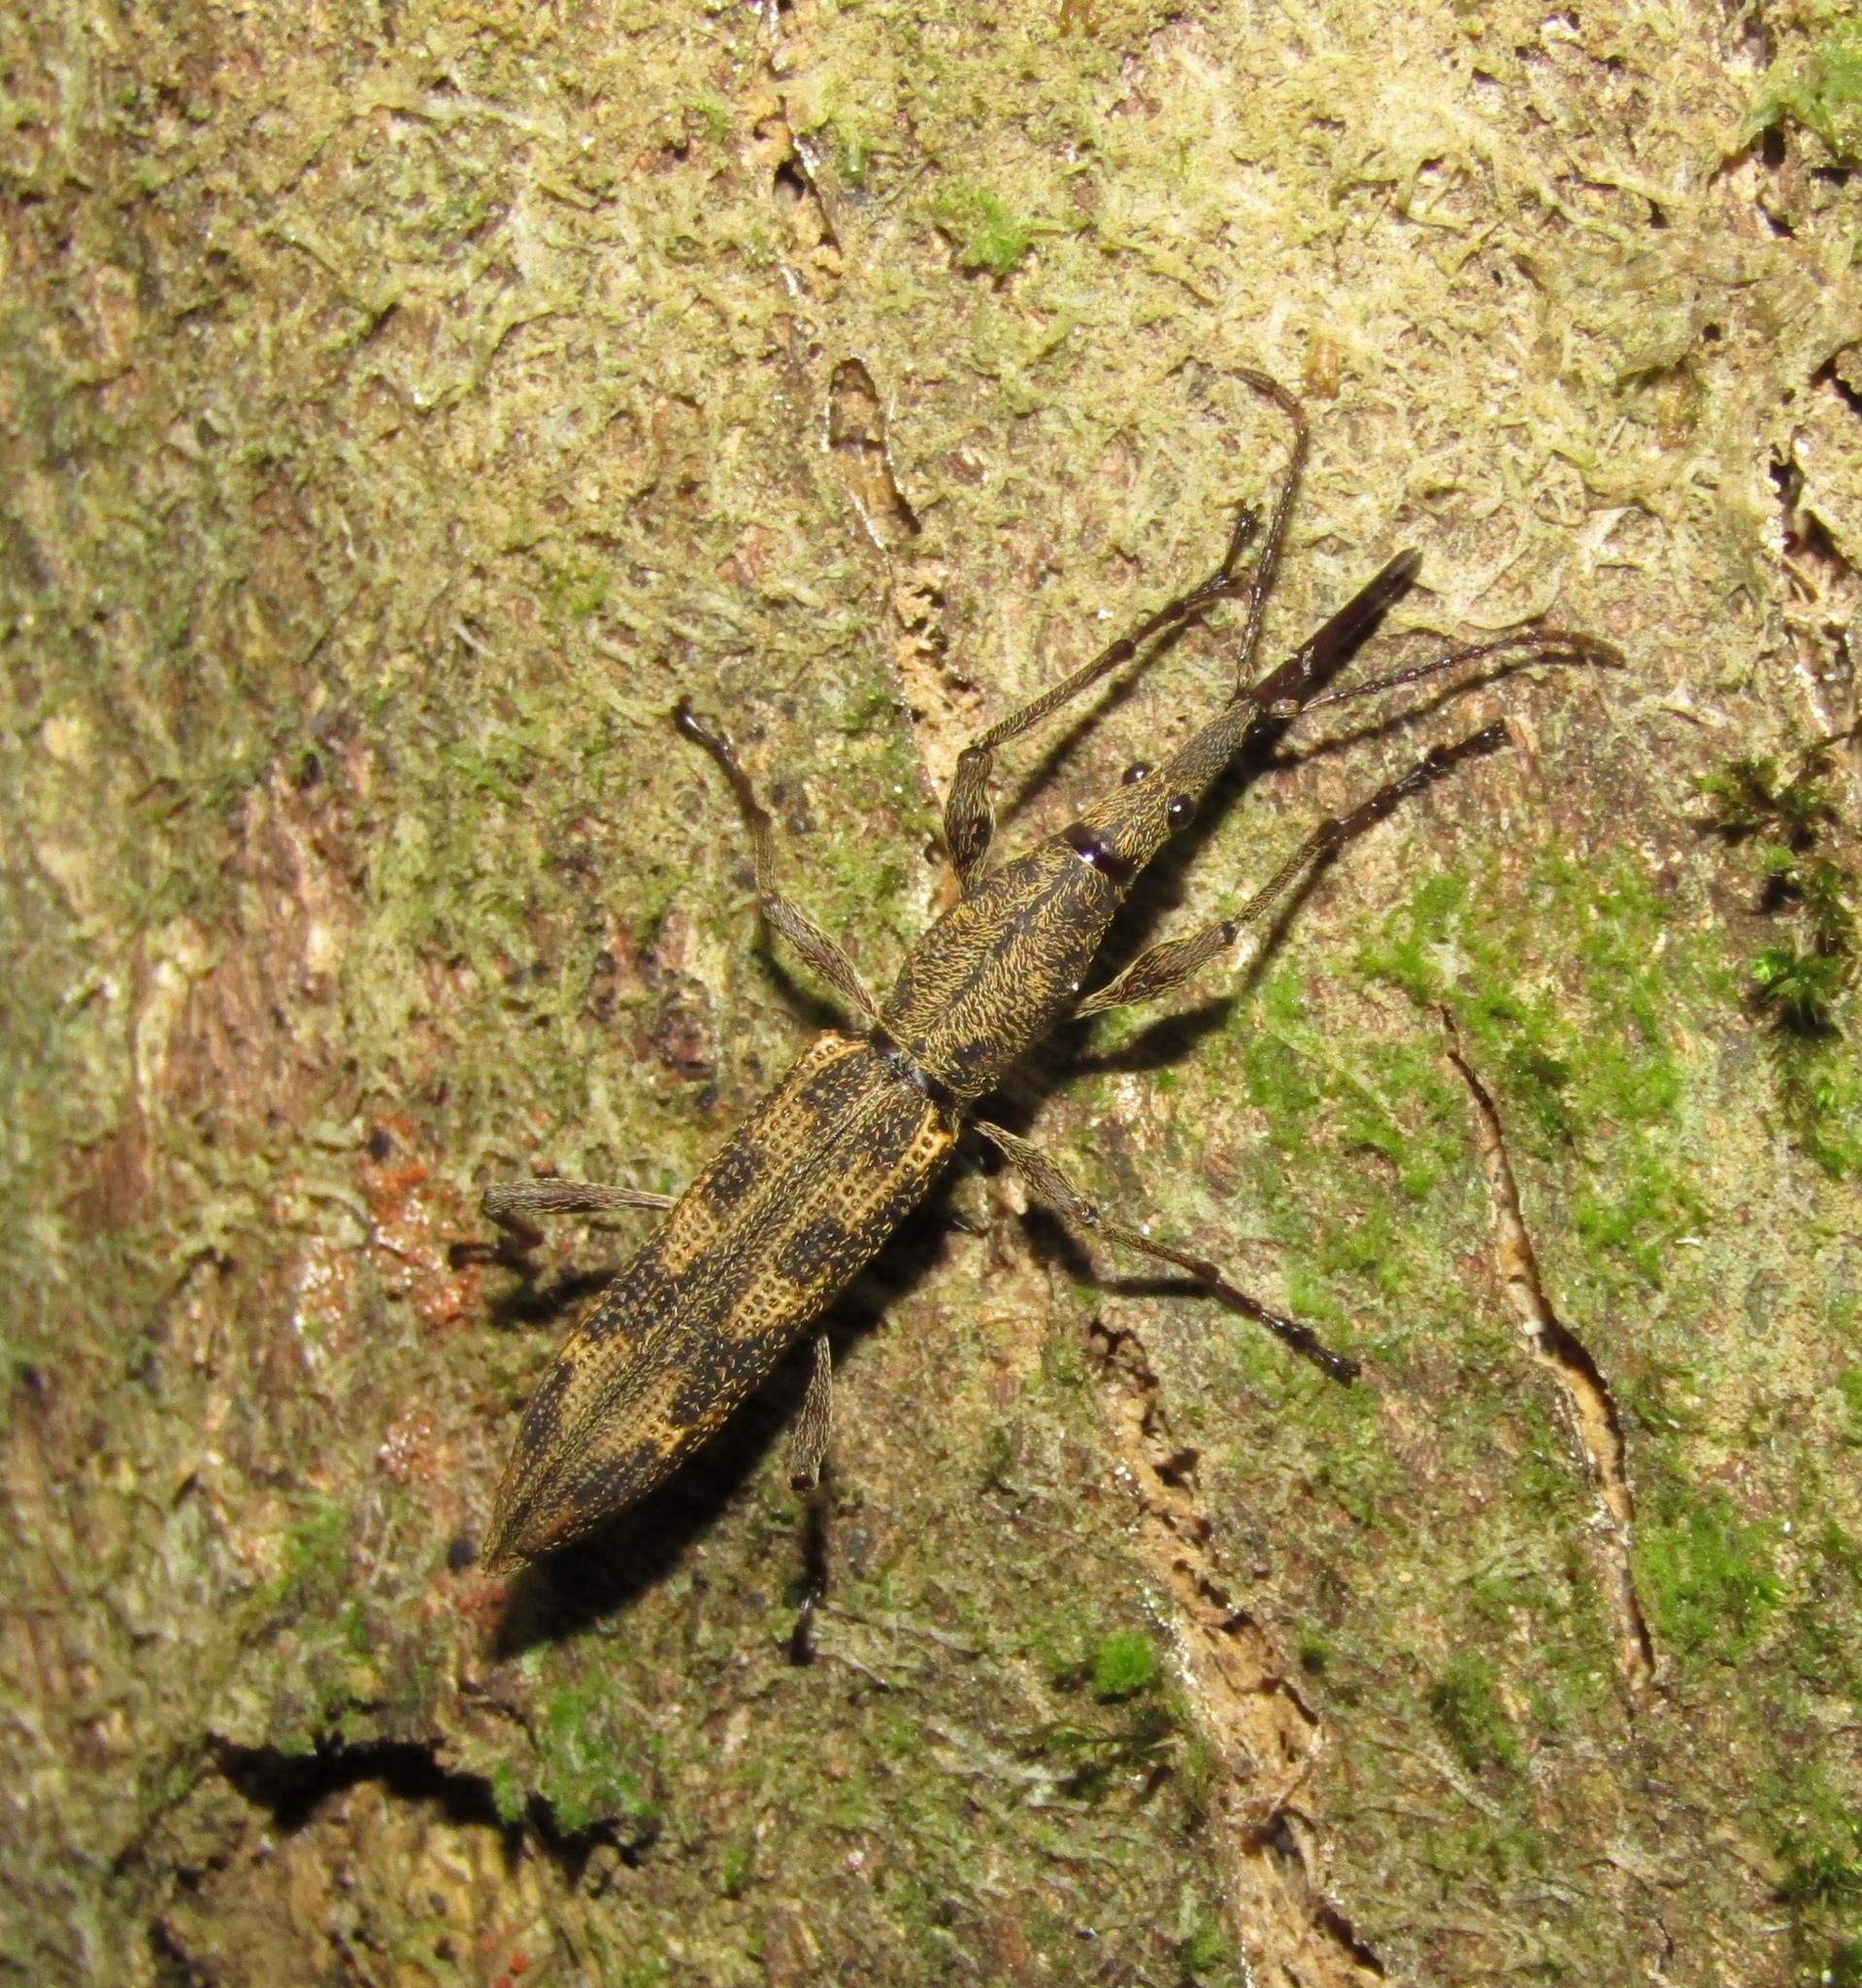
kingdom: Animalia
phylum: Arthropoda
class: Insecta
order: Coleoptera
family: Brentidae
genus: Lasiorhynchus
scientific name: Lasiorhynchus barbicornis
